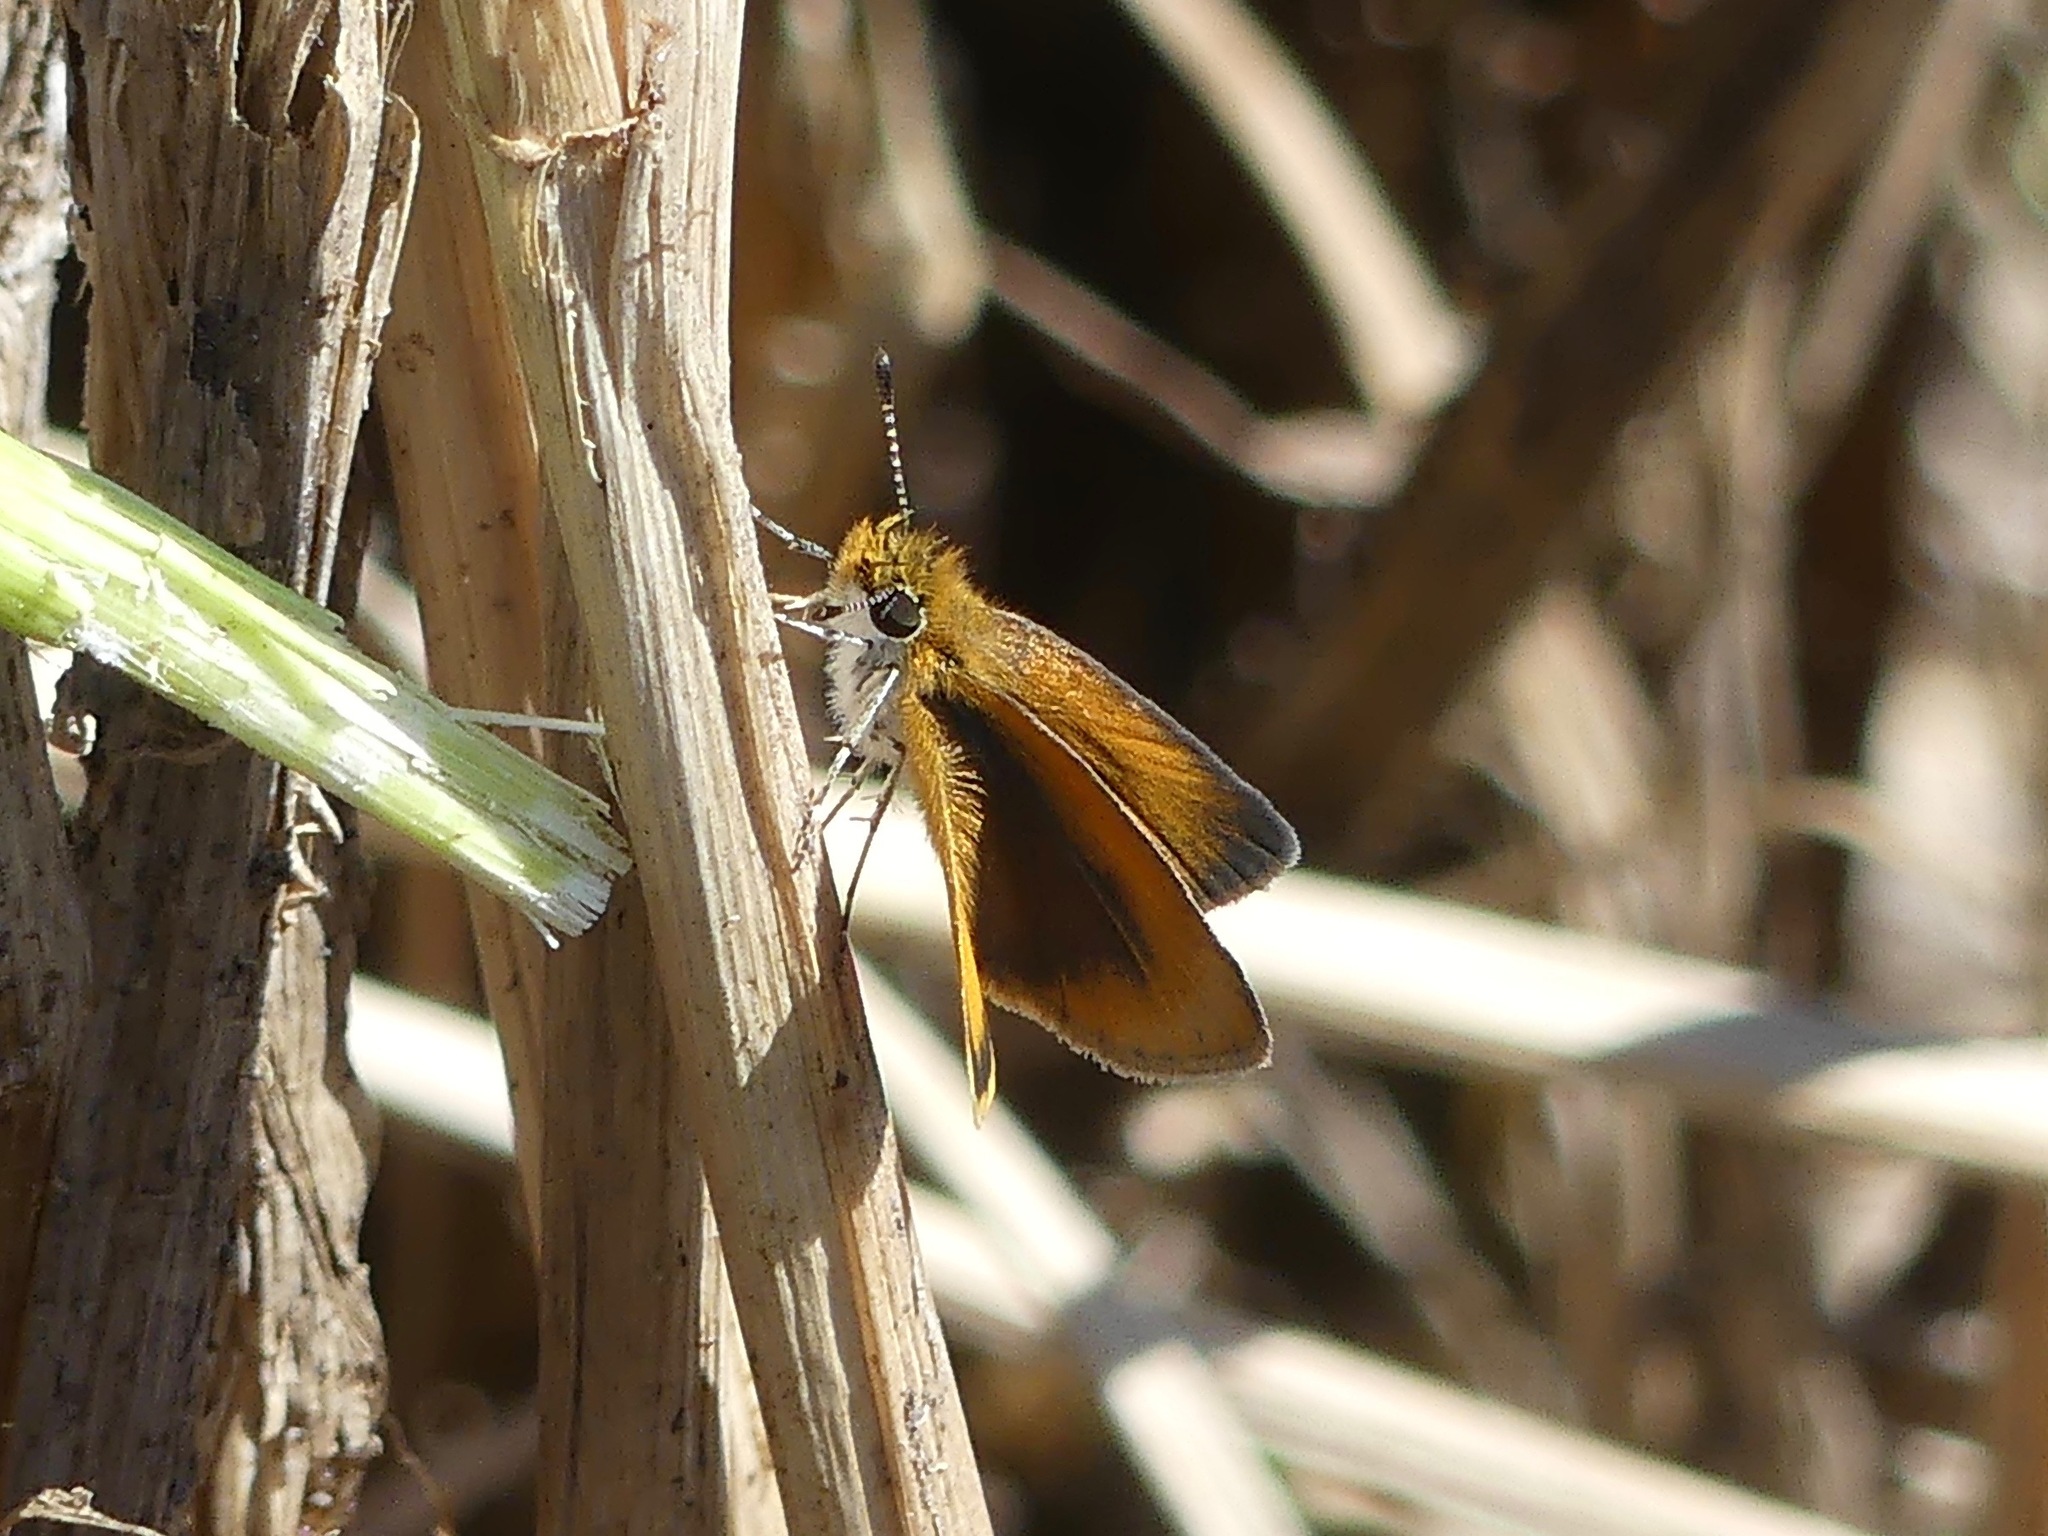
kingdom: Animalia
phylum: Arthropoda
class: Insecta
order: Lepidoptera
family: Hesperiidae
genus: Ancyloxypha
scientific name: Ancyloxypha numitor
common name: Least skipper
